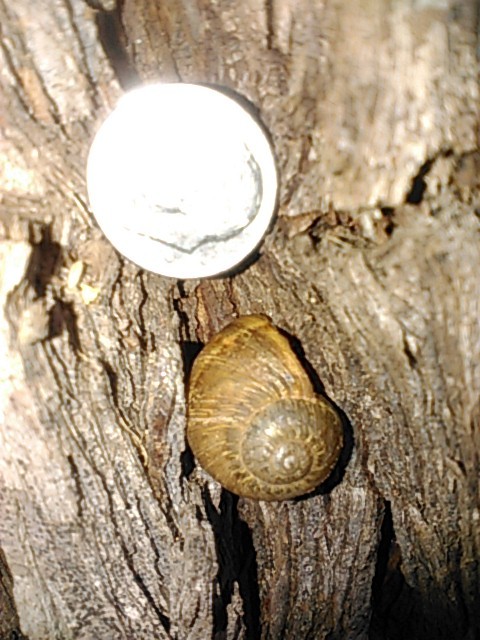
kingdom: Animalia
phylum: Mollusca
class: Gastropoda
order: Stylommatophora
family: Helicidae
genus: Cornu
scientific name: Cornu aspersum
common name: Brown garden snail
